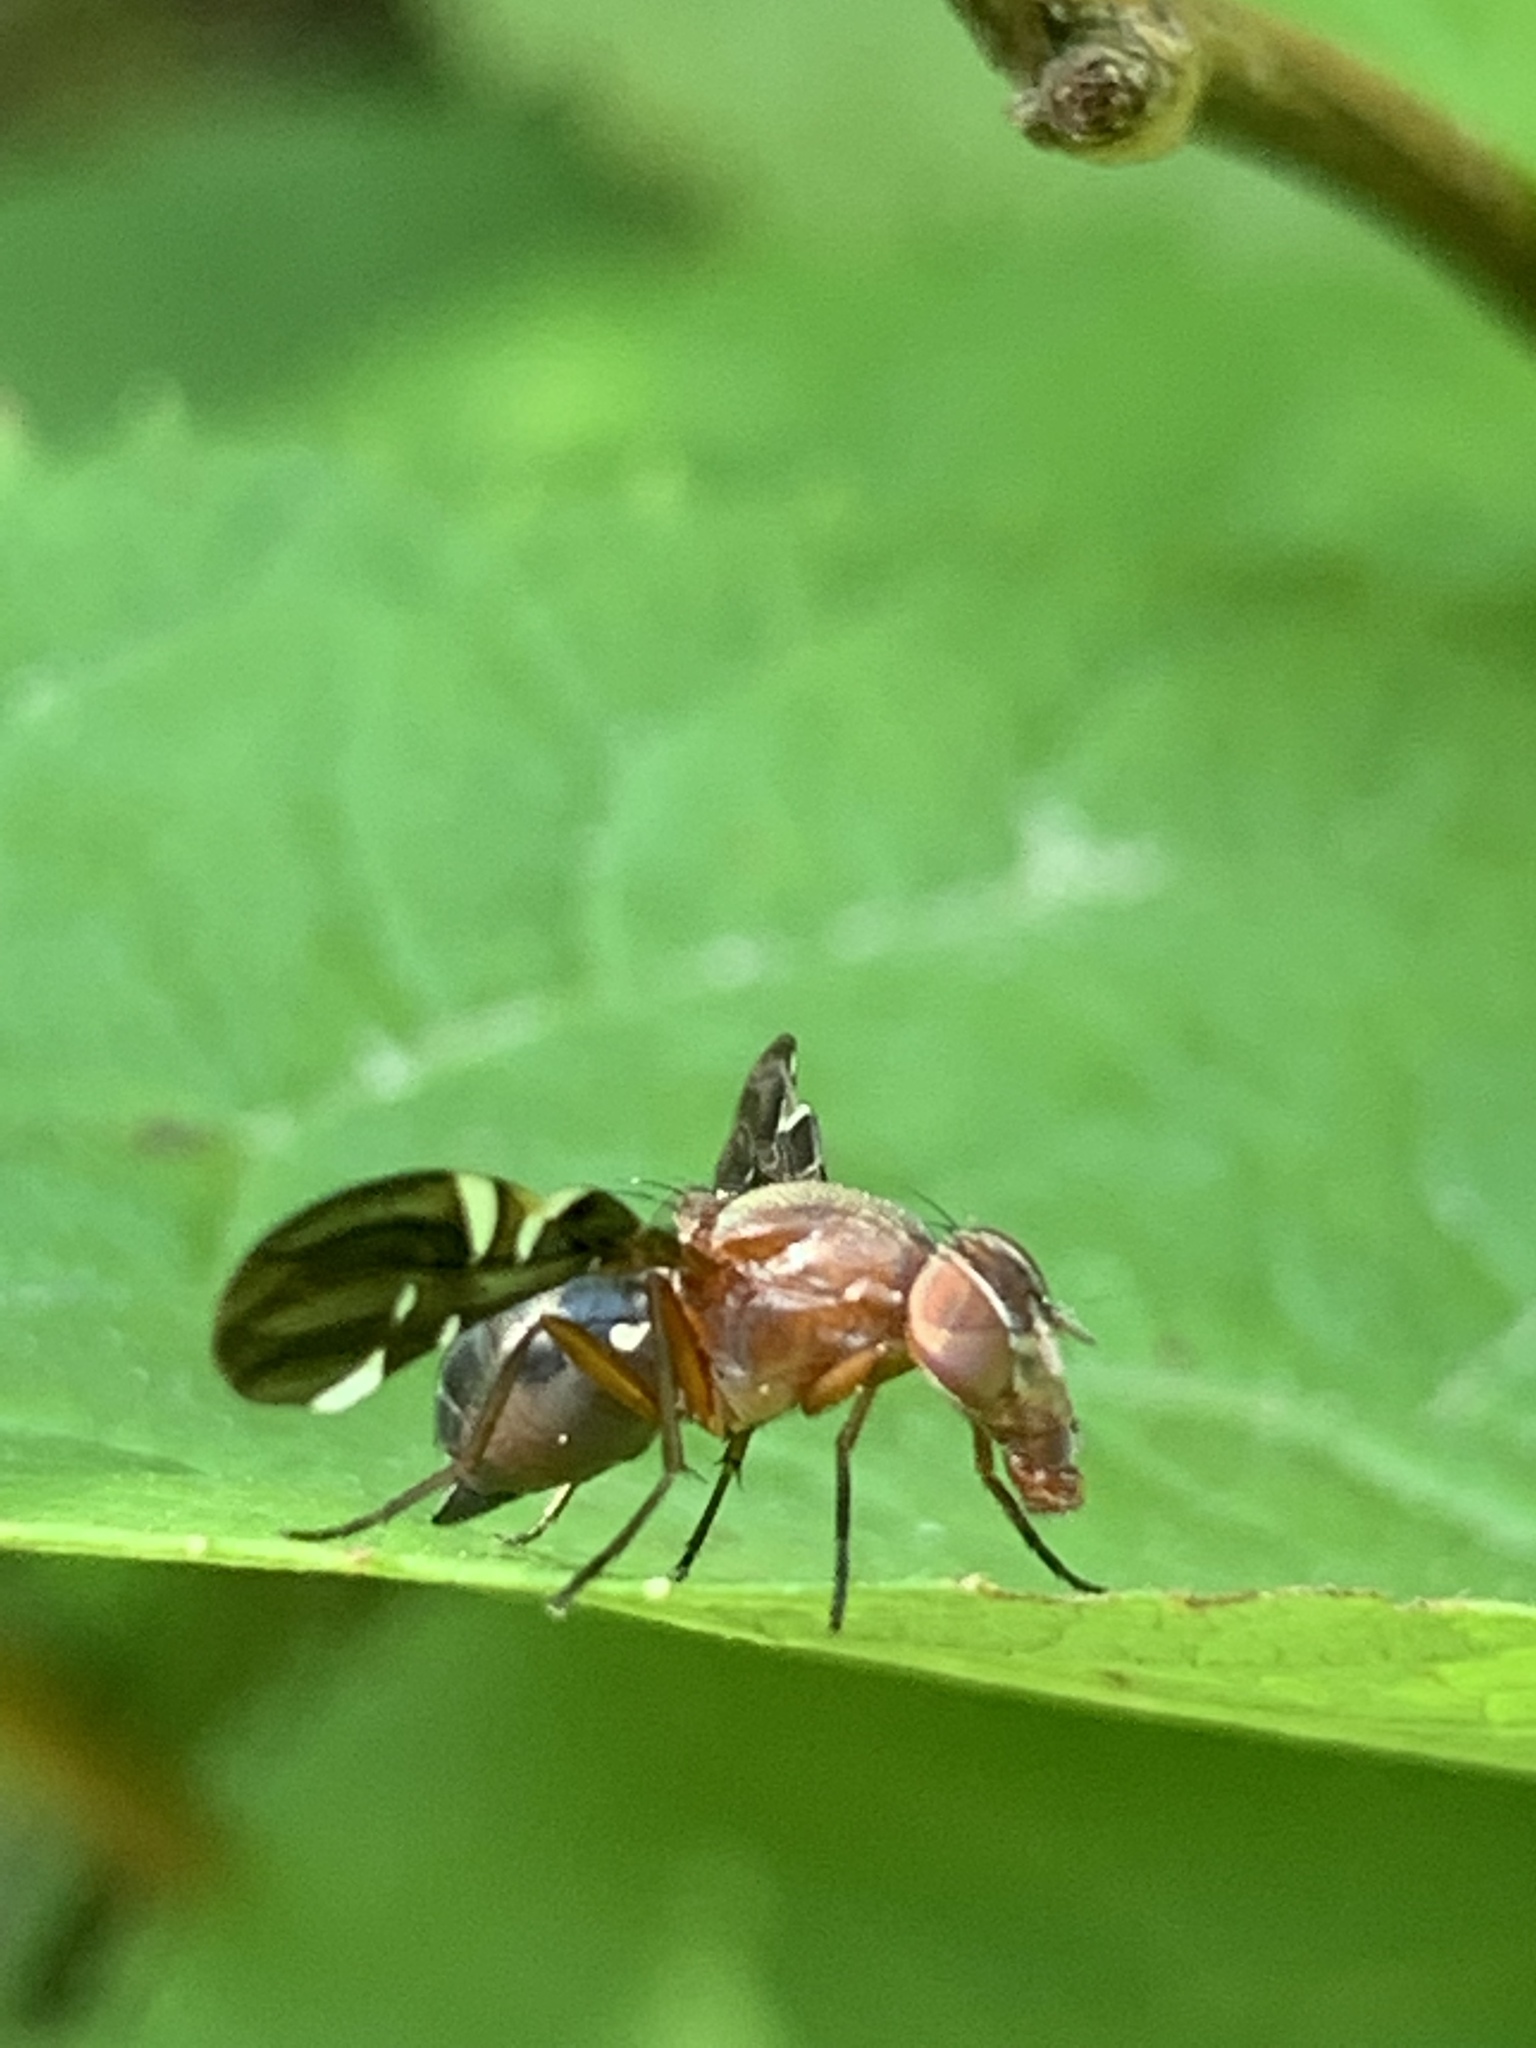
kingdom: Animalia
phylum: Arthropoda
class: Insecta
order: Diptera
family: Ulidiidae
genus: Delphinia
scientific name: Delphinia picta
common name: Common picture-winged fly
